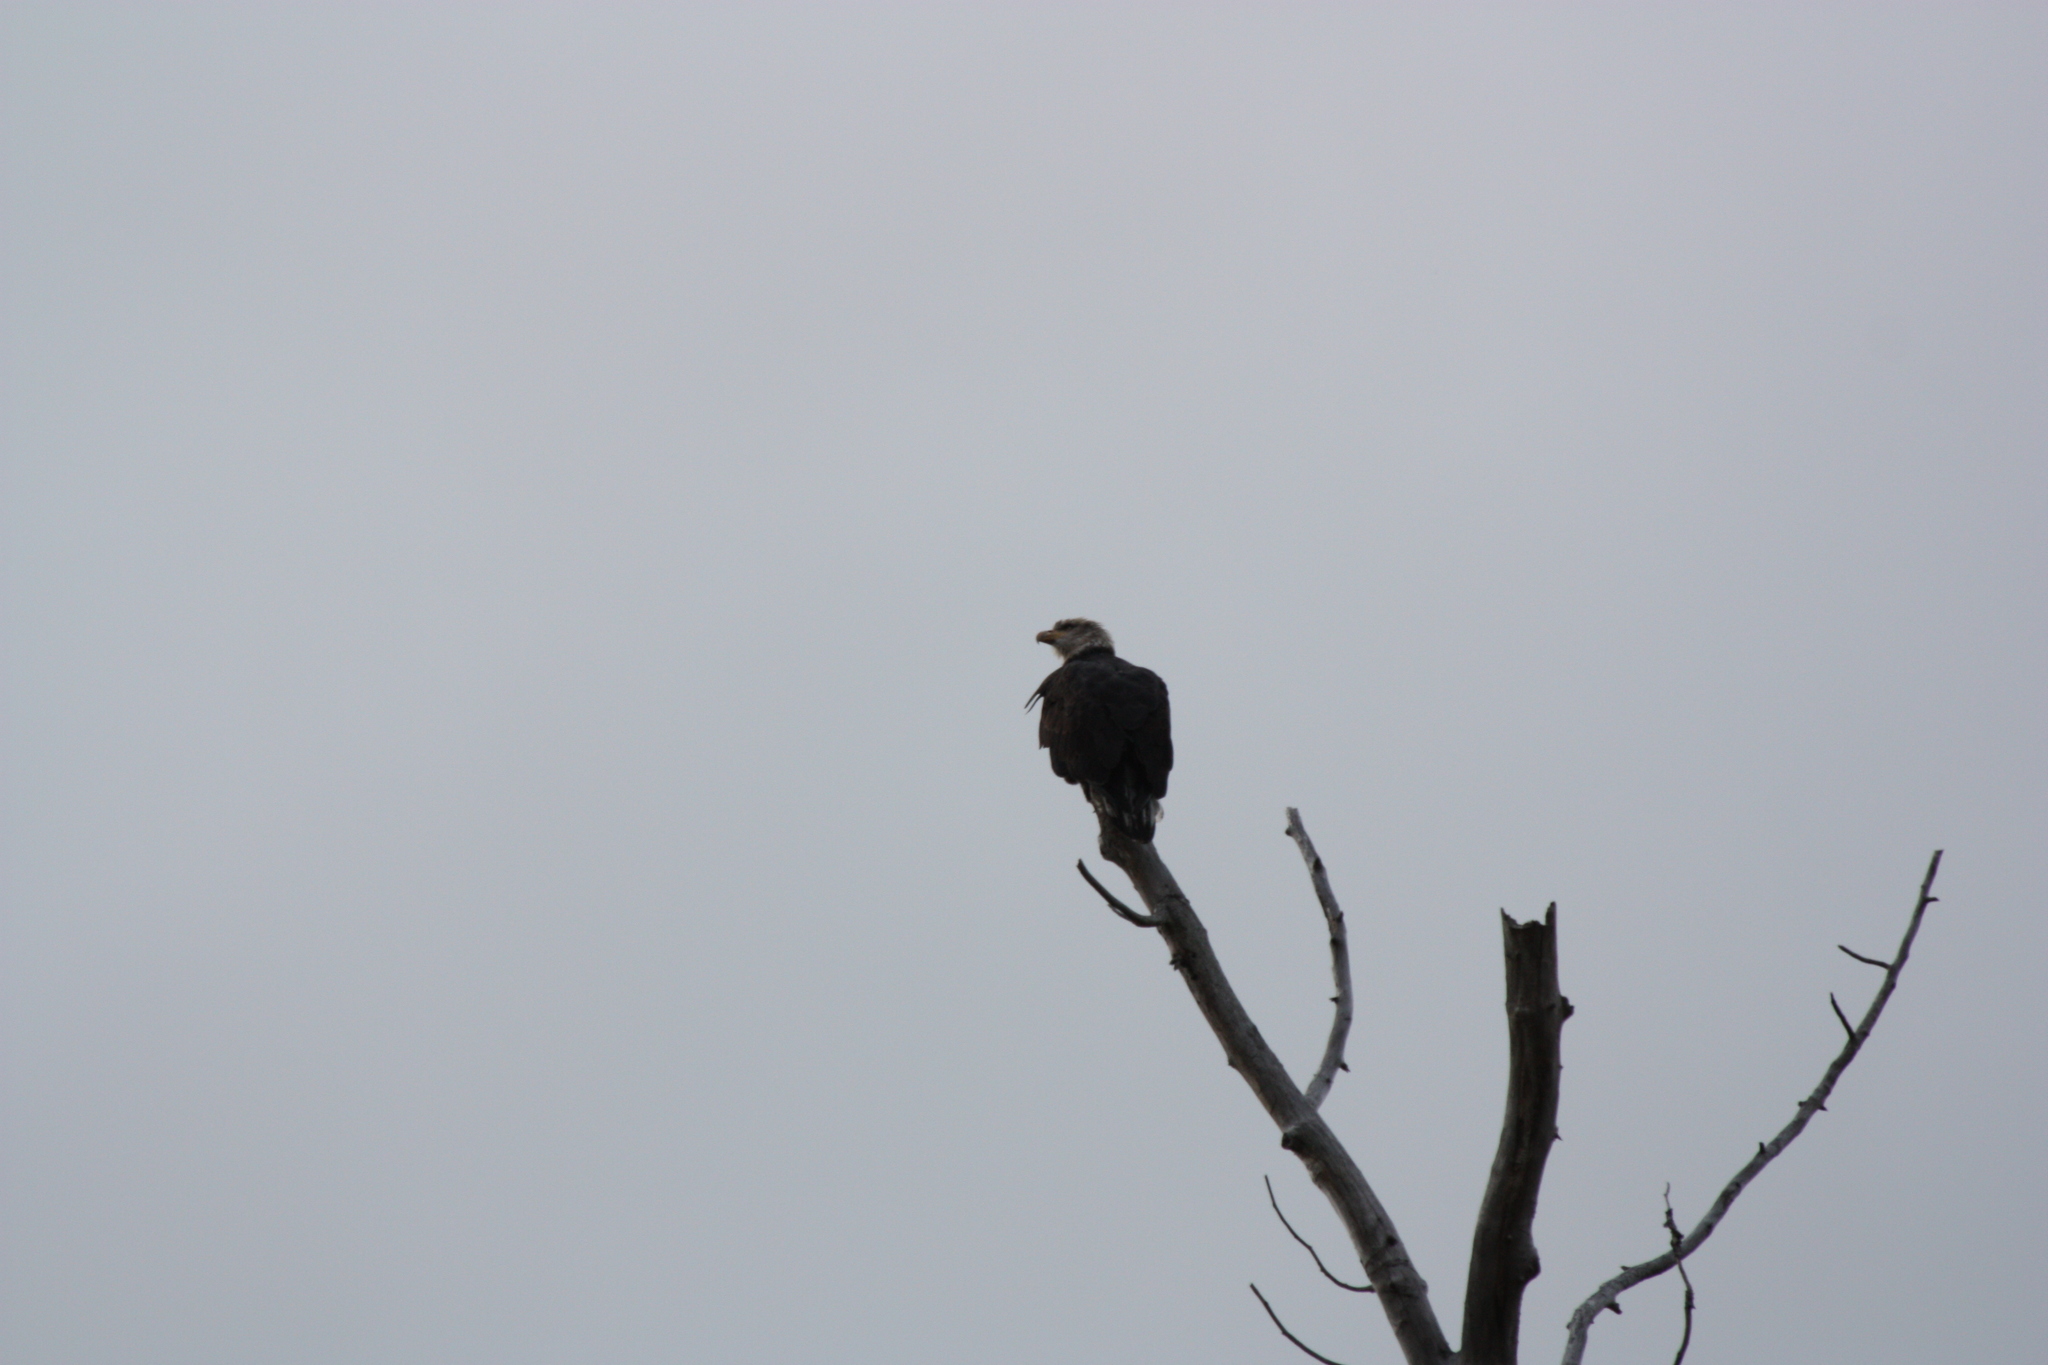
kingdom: Animalia
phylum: Chordata
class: Aves
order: Accipitriformes
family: Accipitridae
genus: Haliaeetus
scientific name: Haliaeetus leucocephalus
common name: Bald eagle
